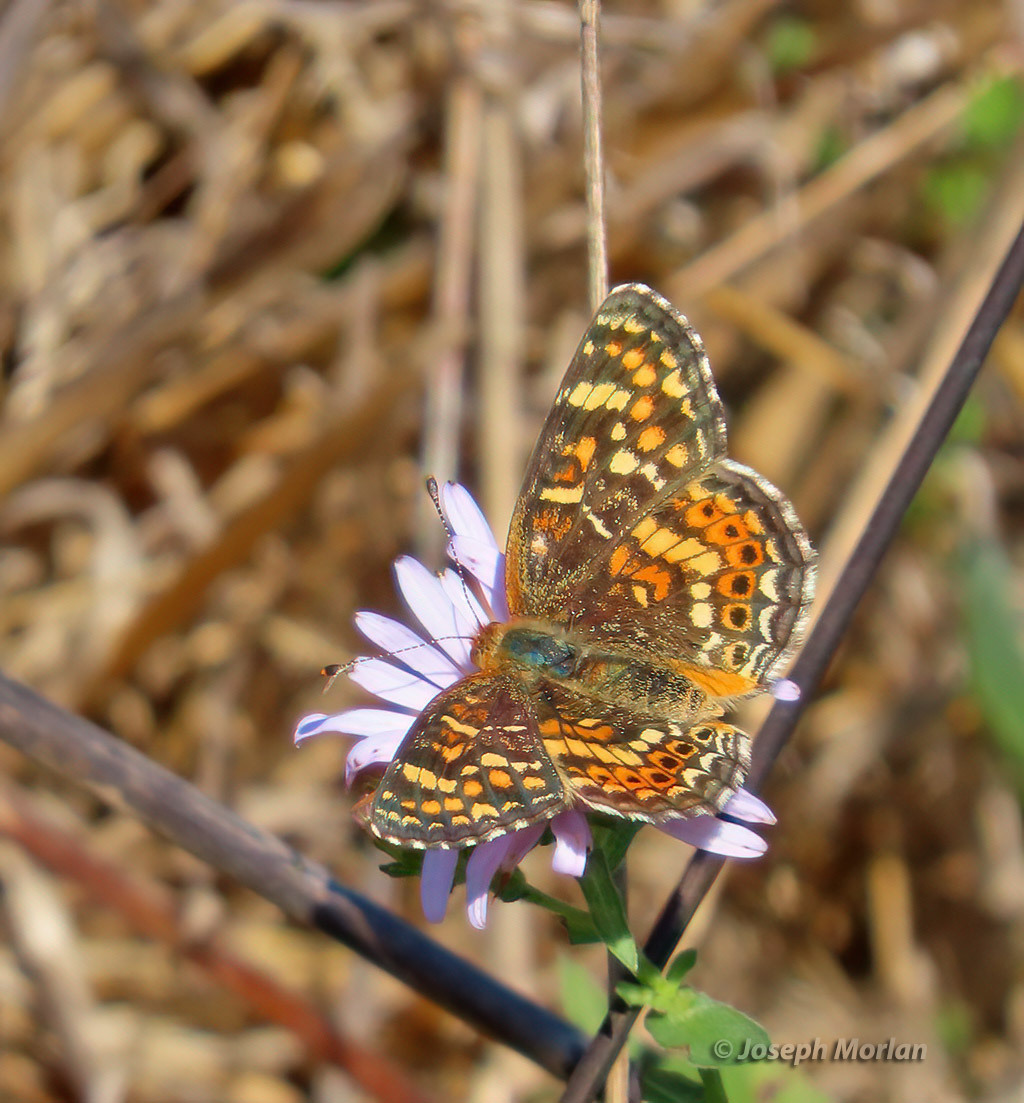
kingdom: Animalia
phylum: Arthropoda
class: Insecta
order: Lepidoptera
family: Nymphalidae
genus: Phyciodes
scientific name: Phyciodes tharos
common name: Pearl crescent
